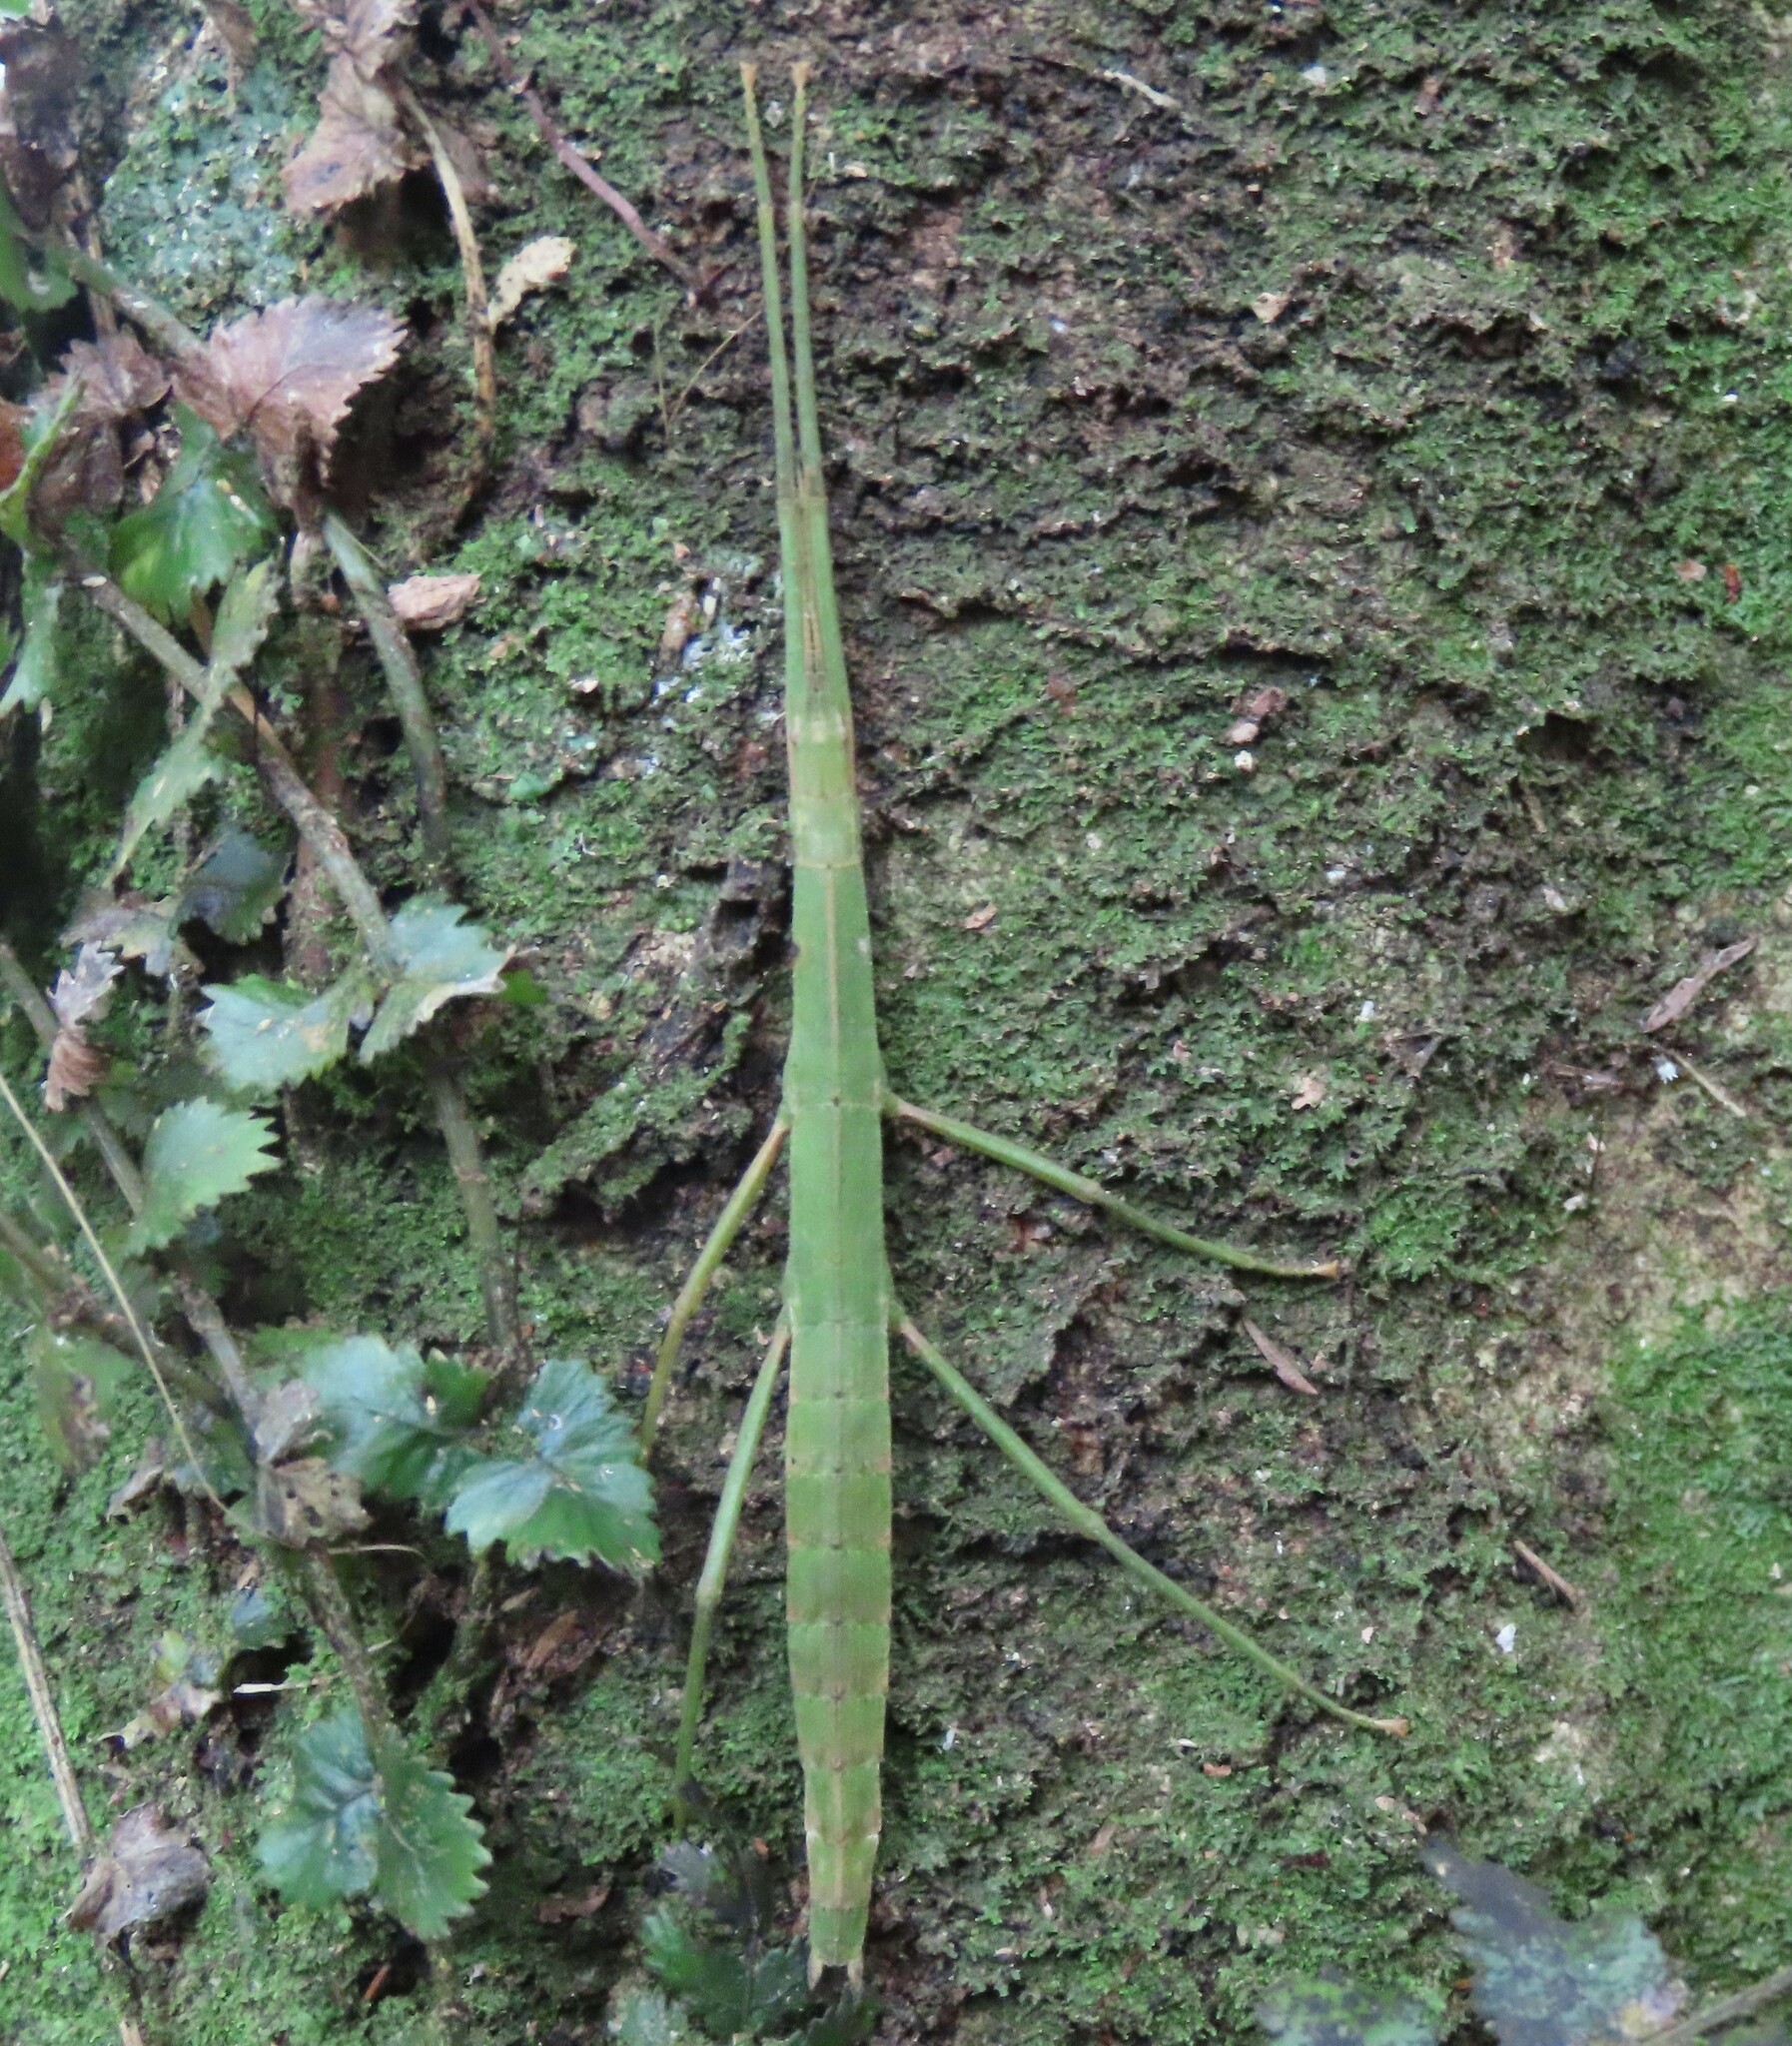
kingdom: Animalia
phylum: Arthropoda
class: Insecta
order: Phasmida
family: Phasmatidae
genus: Tectarchus
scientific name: Tectarchus huttoni
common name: The common ridge-backed stick insect
